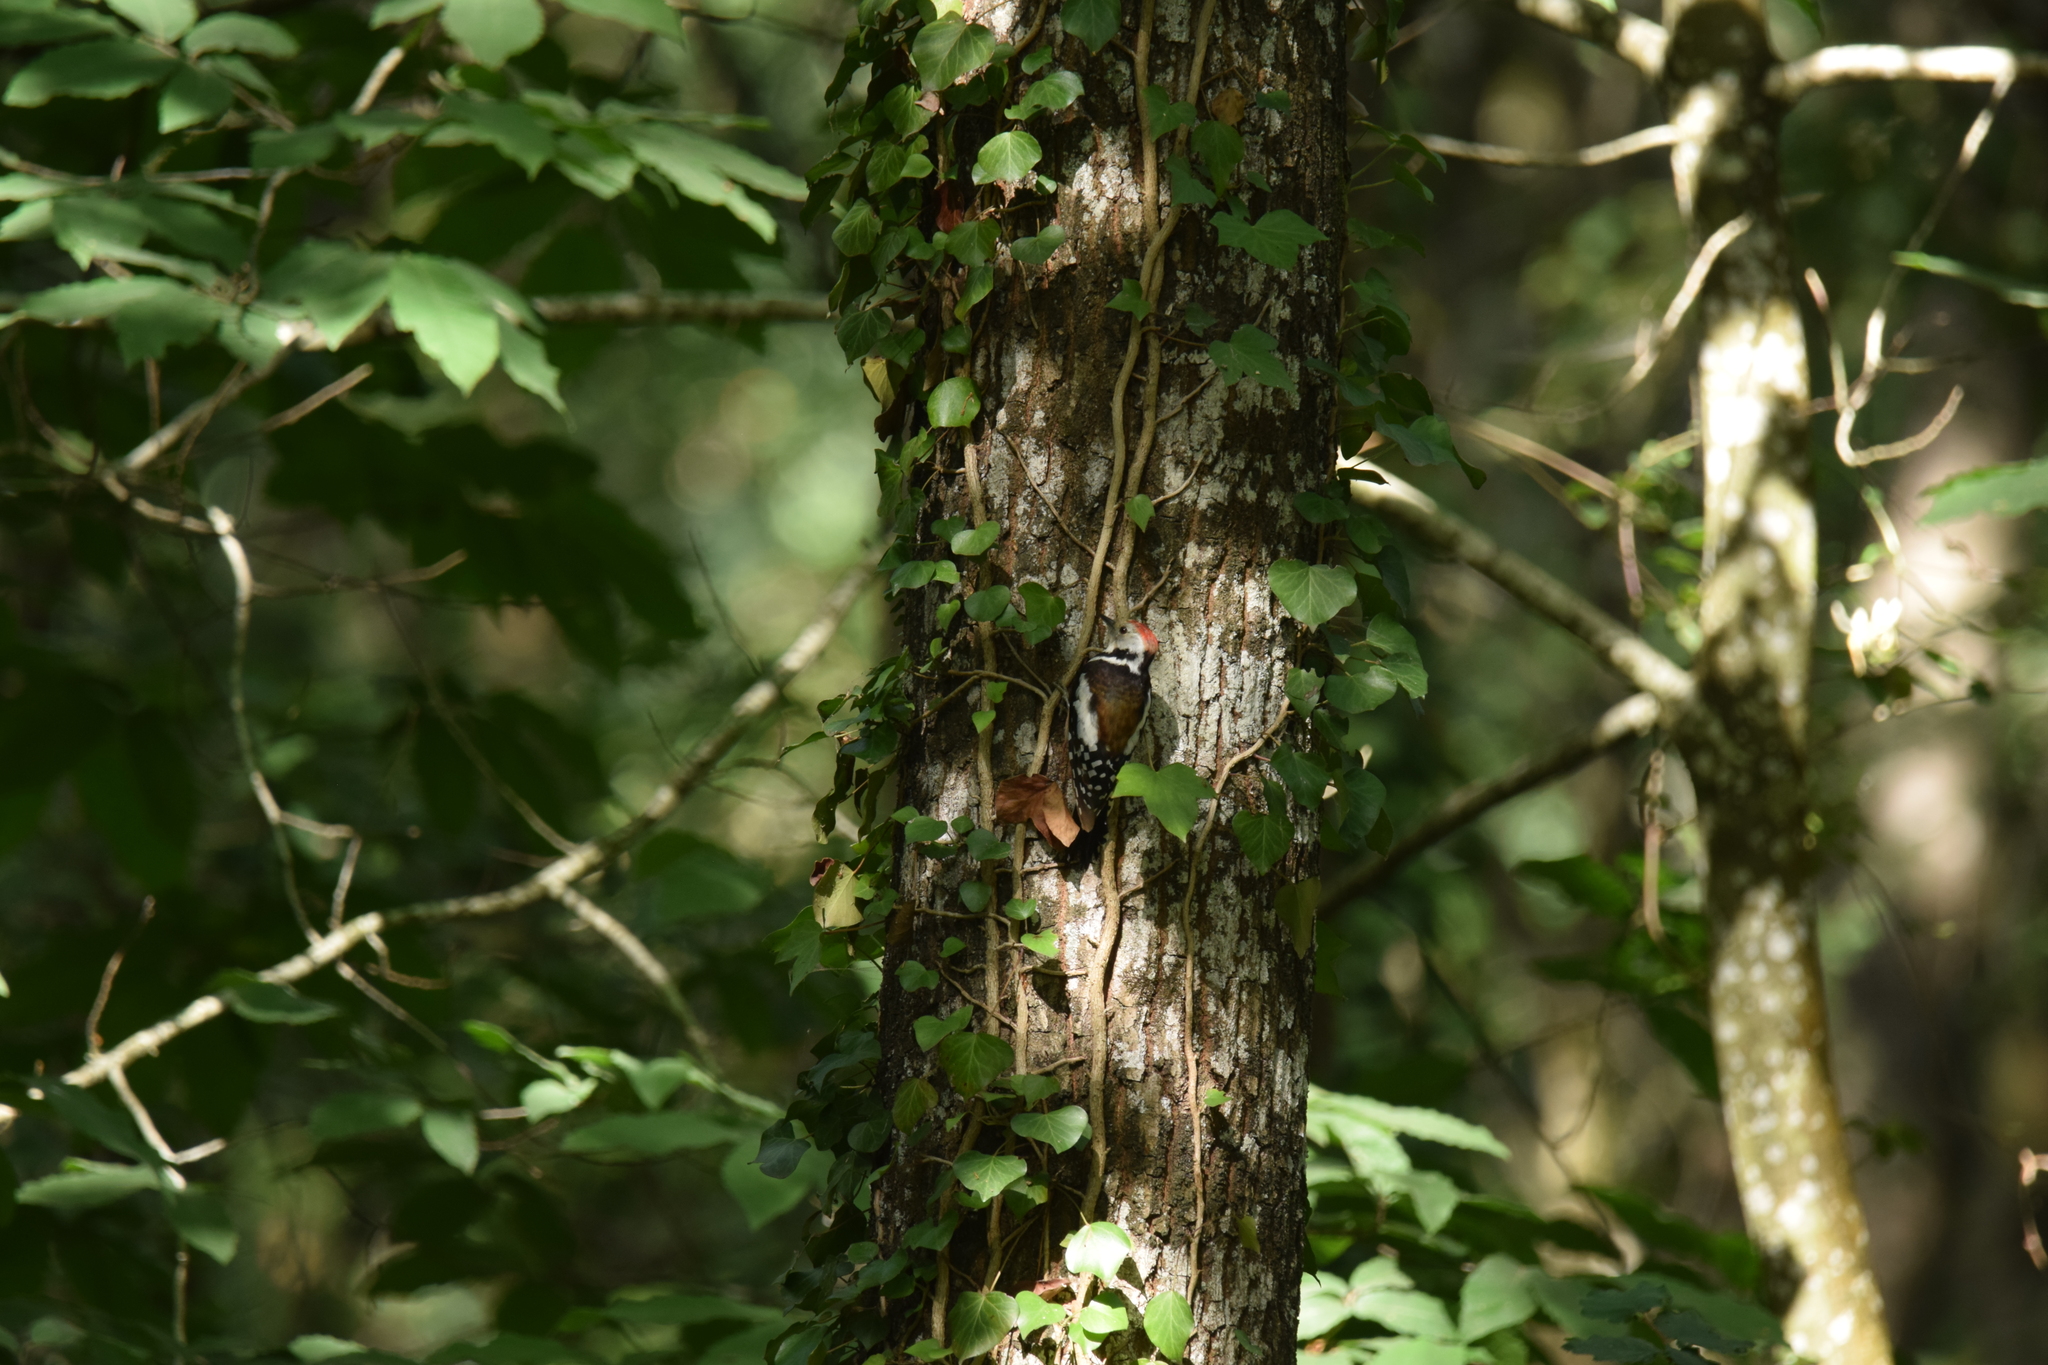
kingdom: Animalia
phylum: Chordata
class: Aves
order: Piciformes
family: Picidae
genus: Dendrocoptes
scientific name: Dendrocoptes medius
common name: Middle spotted woodpecker
